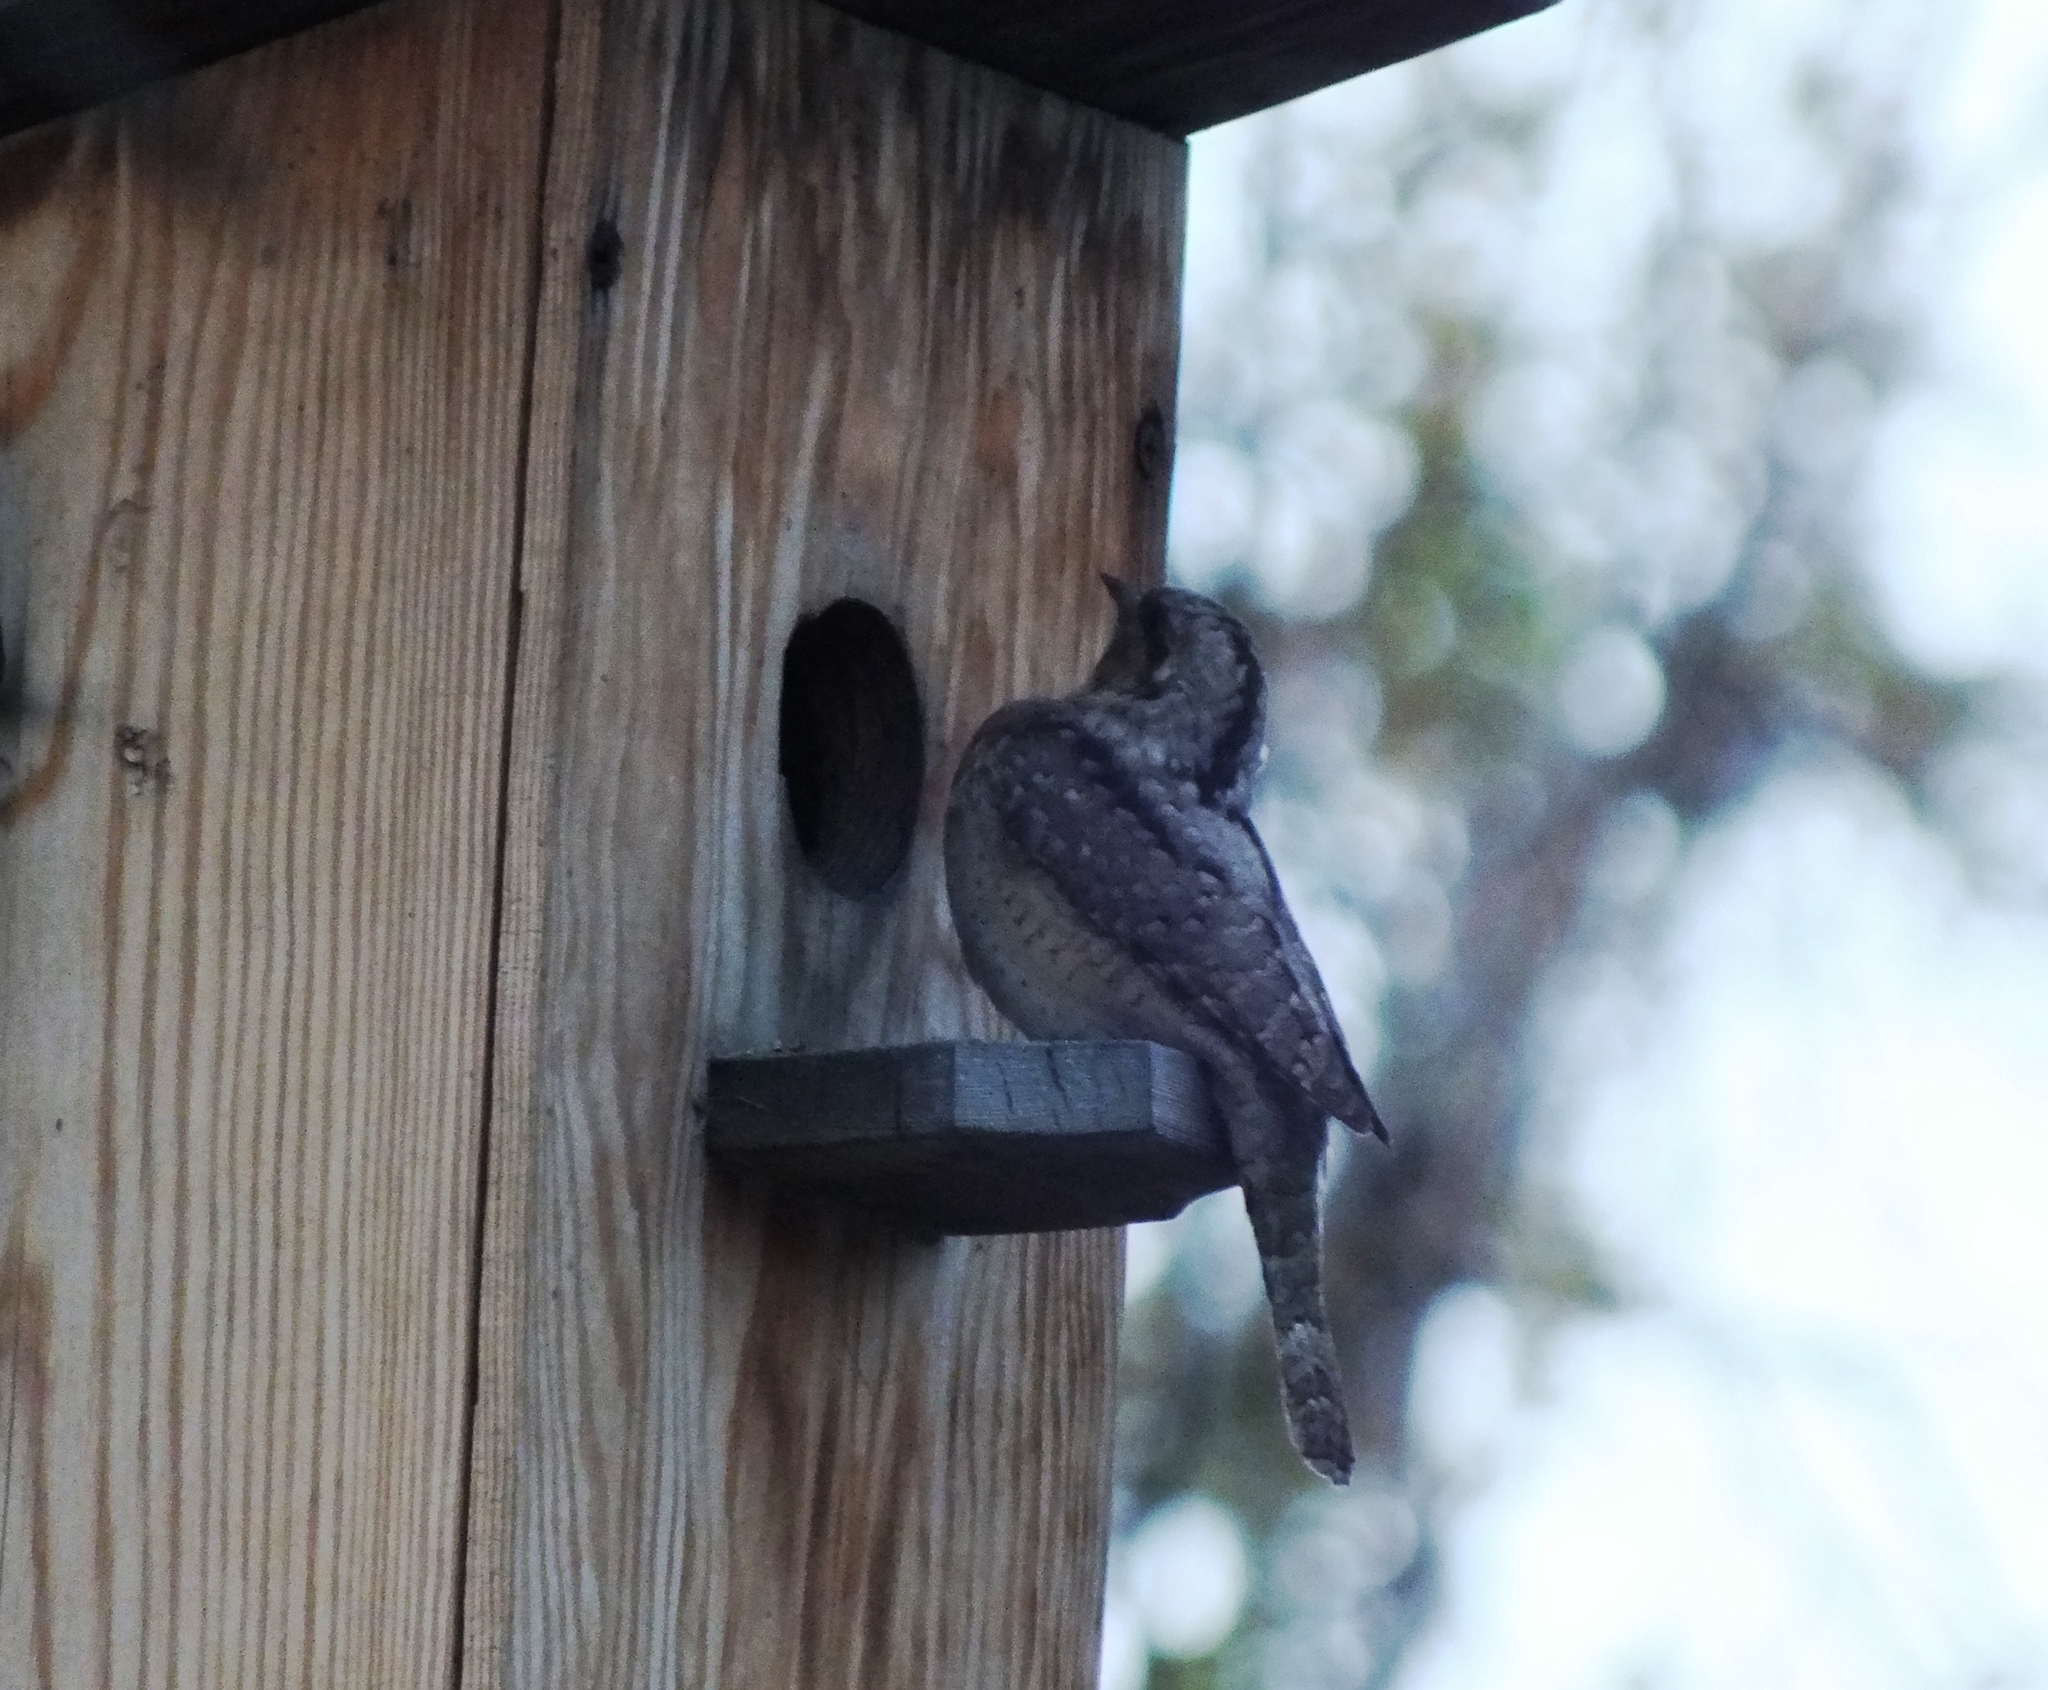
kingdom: Animalia
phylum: Chordata
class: Aves
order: Piciformes
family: Picidae
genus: Jynx
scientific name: Jynx torquilla
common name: Eurasian wryneck
